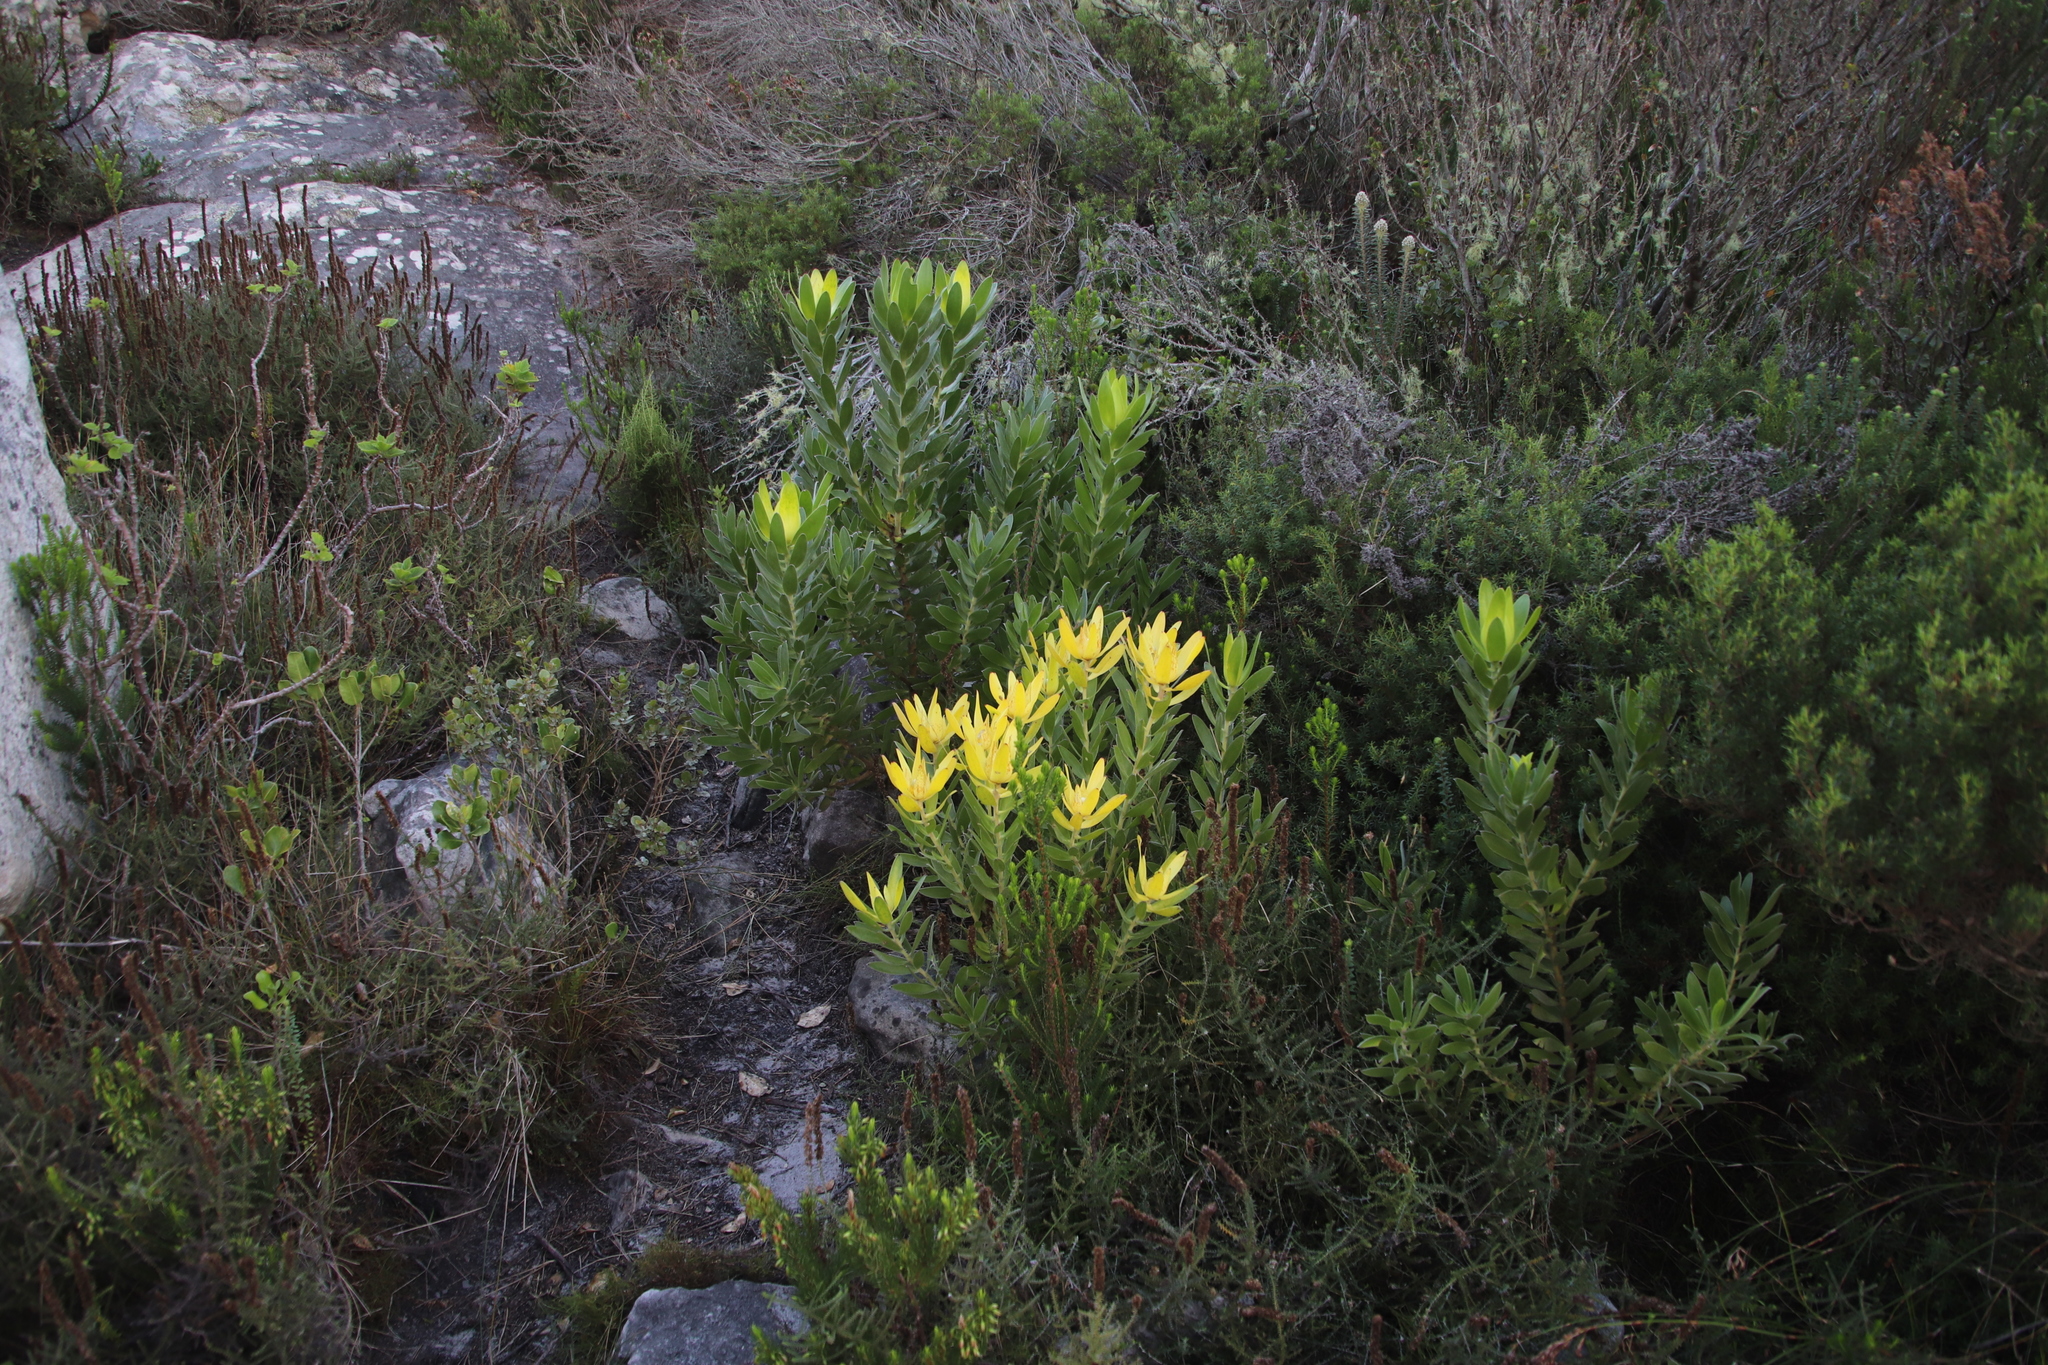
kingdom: Plantae
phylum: Tracheophyta
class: Magnoliopsida
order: Proteales
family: Proteaceae
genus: Leucadendron
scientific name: Leucadendron laureolum
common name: Golden sunshinebush
